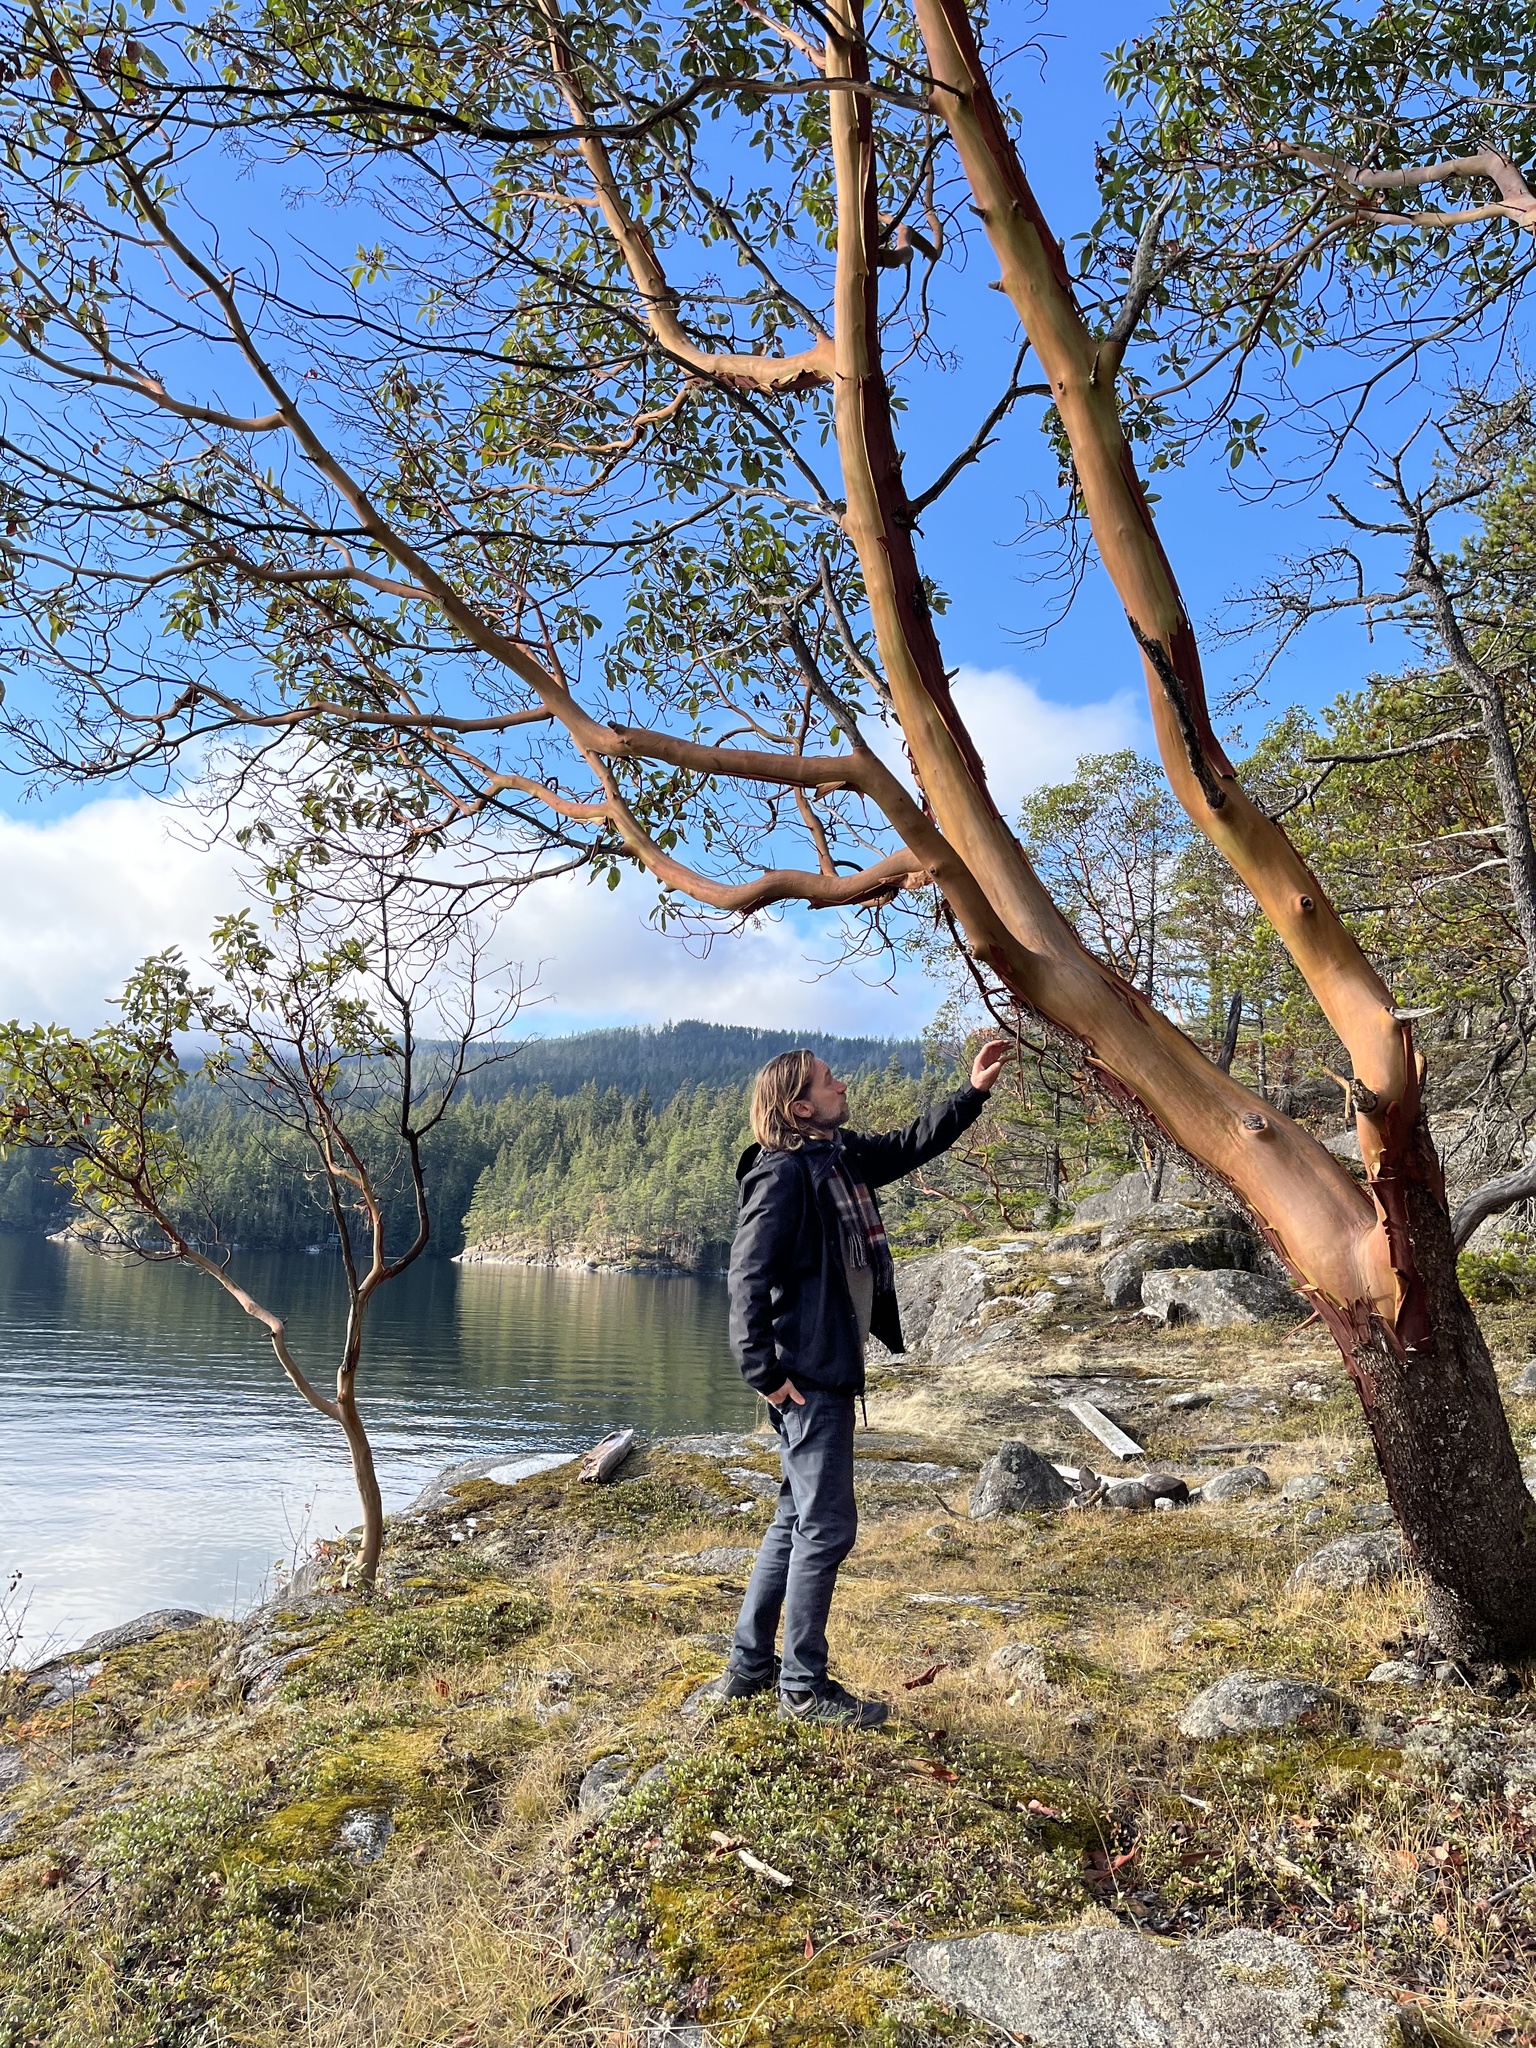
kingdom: Plantae
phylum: Tracheophyta
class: Magnoliopsida
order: Ericales
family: Ericaceae
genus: Arbutus
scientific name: Arbutus menziesii
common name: Pacific madrone
